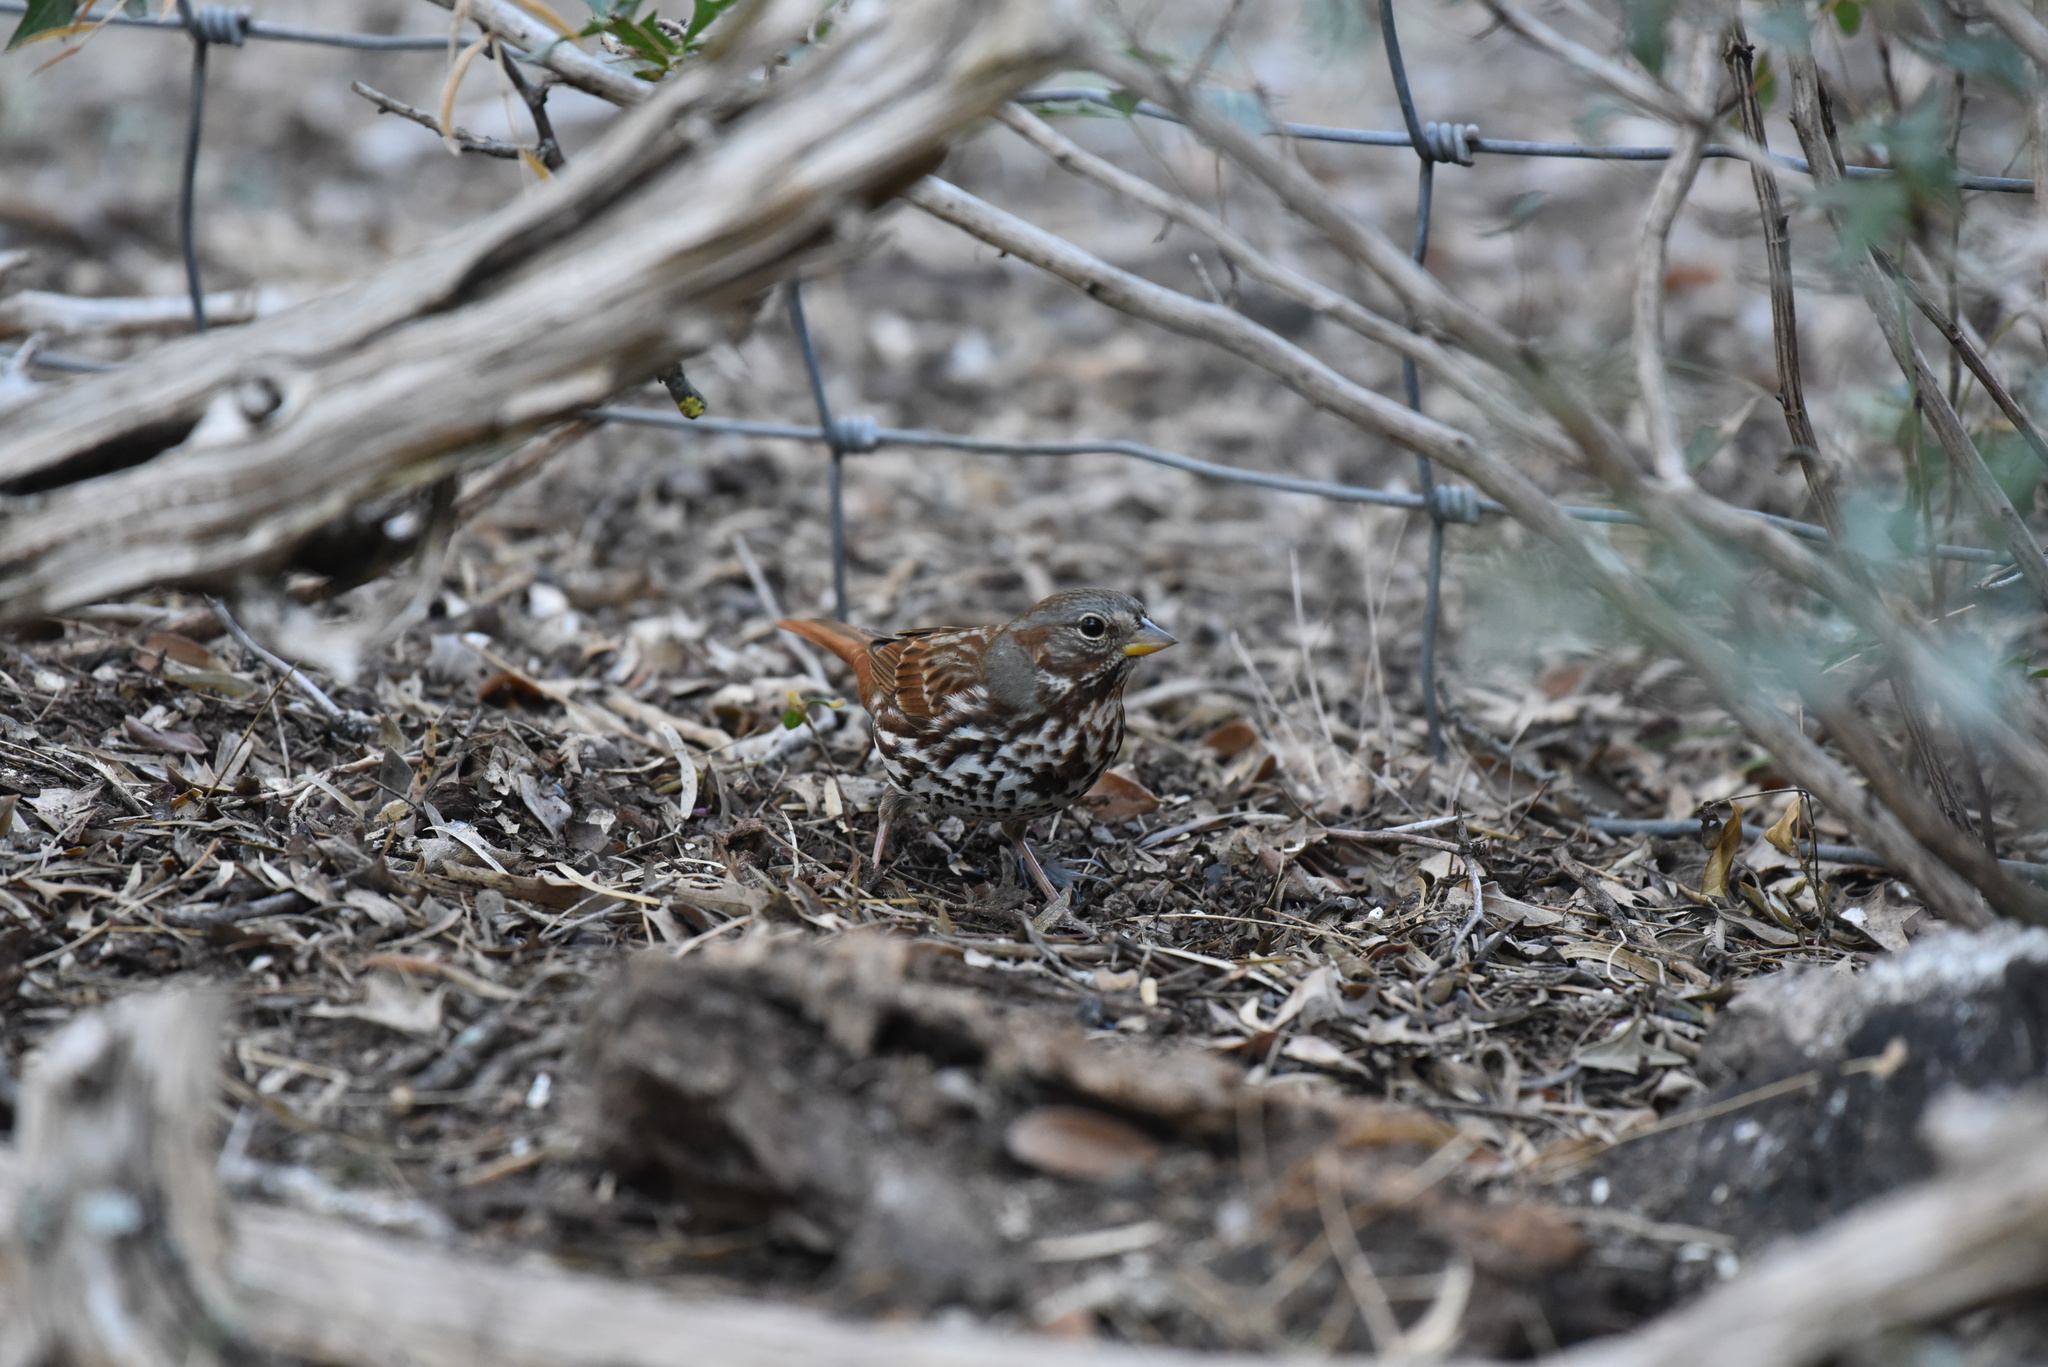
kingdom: Animalia
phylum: Chordata
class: Aves
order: Passeriformes
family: Passerellidae
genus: Passerella
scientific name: Passerella iliaca
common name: Fox sparrow
